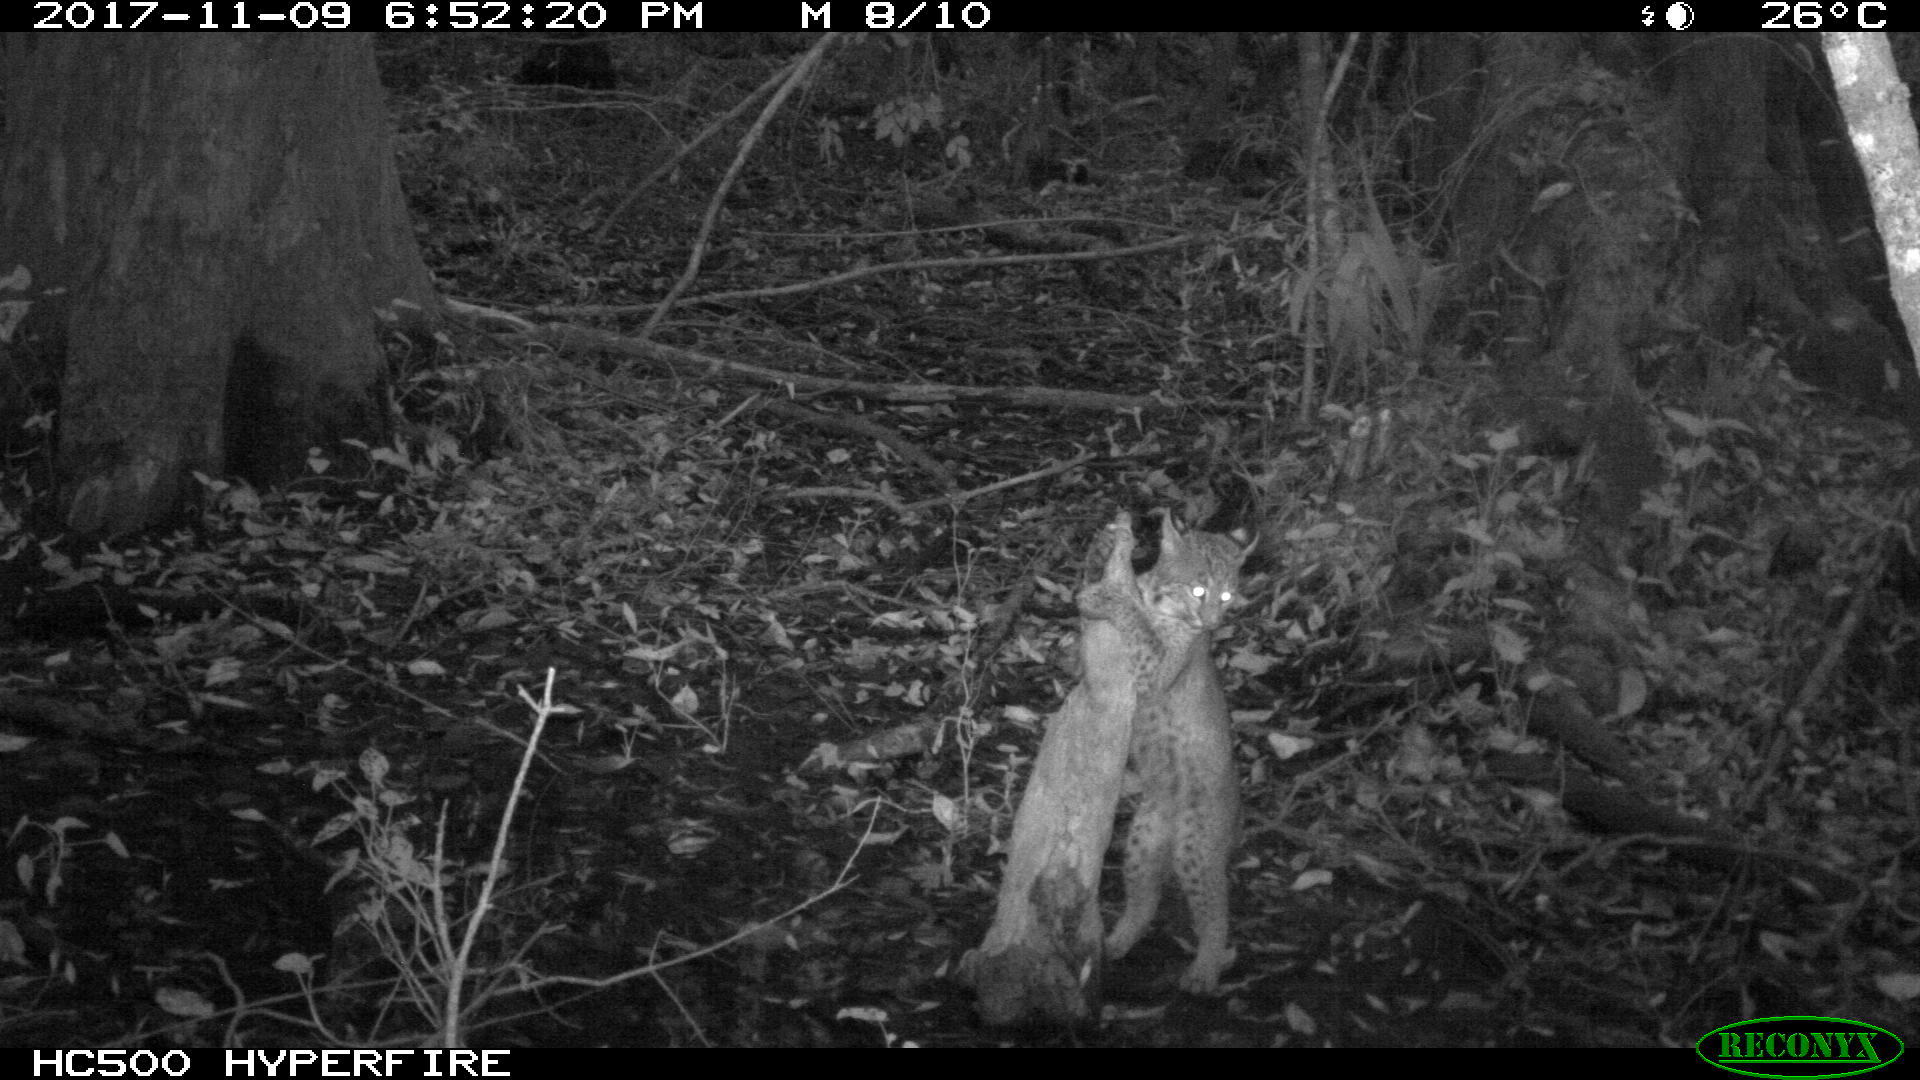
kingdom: Animalia
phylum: Chordata
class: Mammalia
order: Carnivora
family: Felidae
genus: Lynx
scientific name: Lynx rufus
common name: Bobcat
